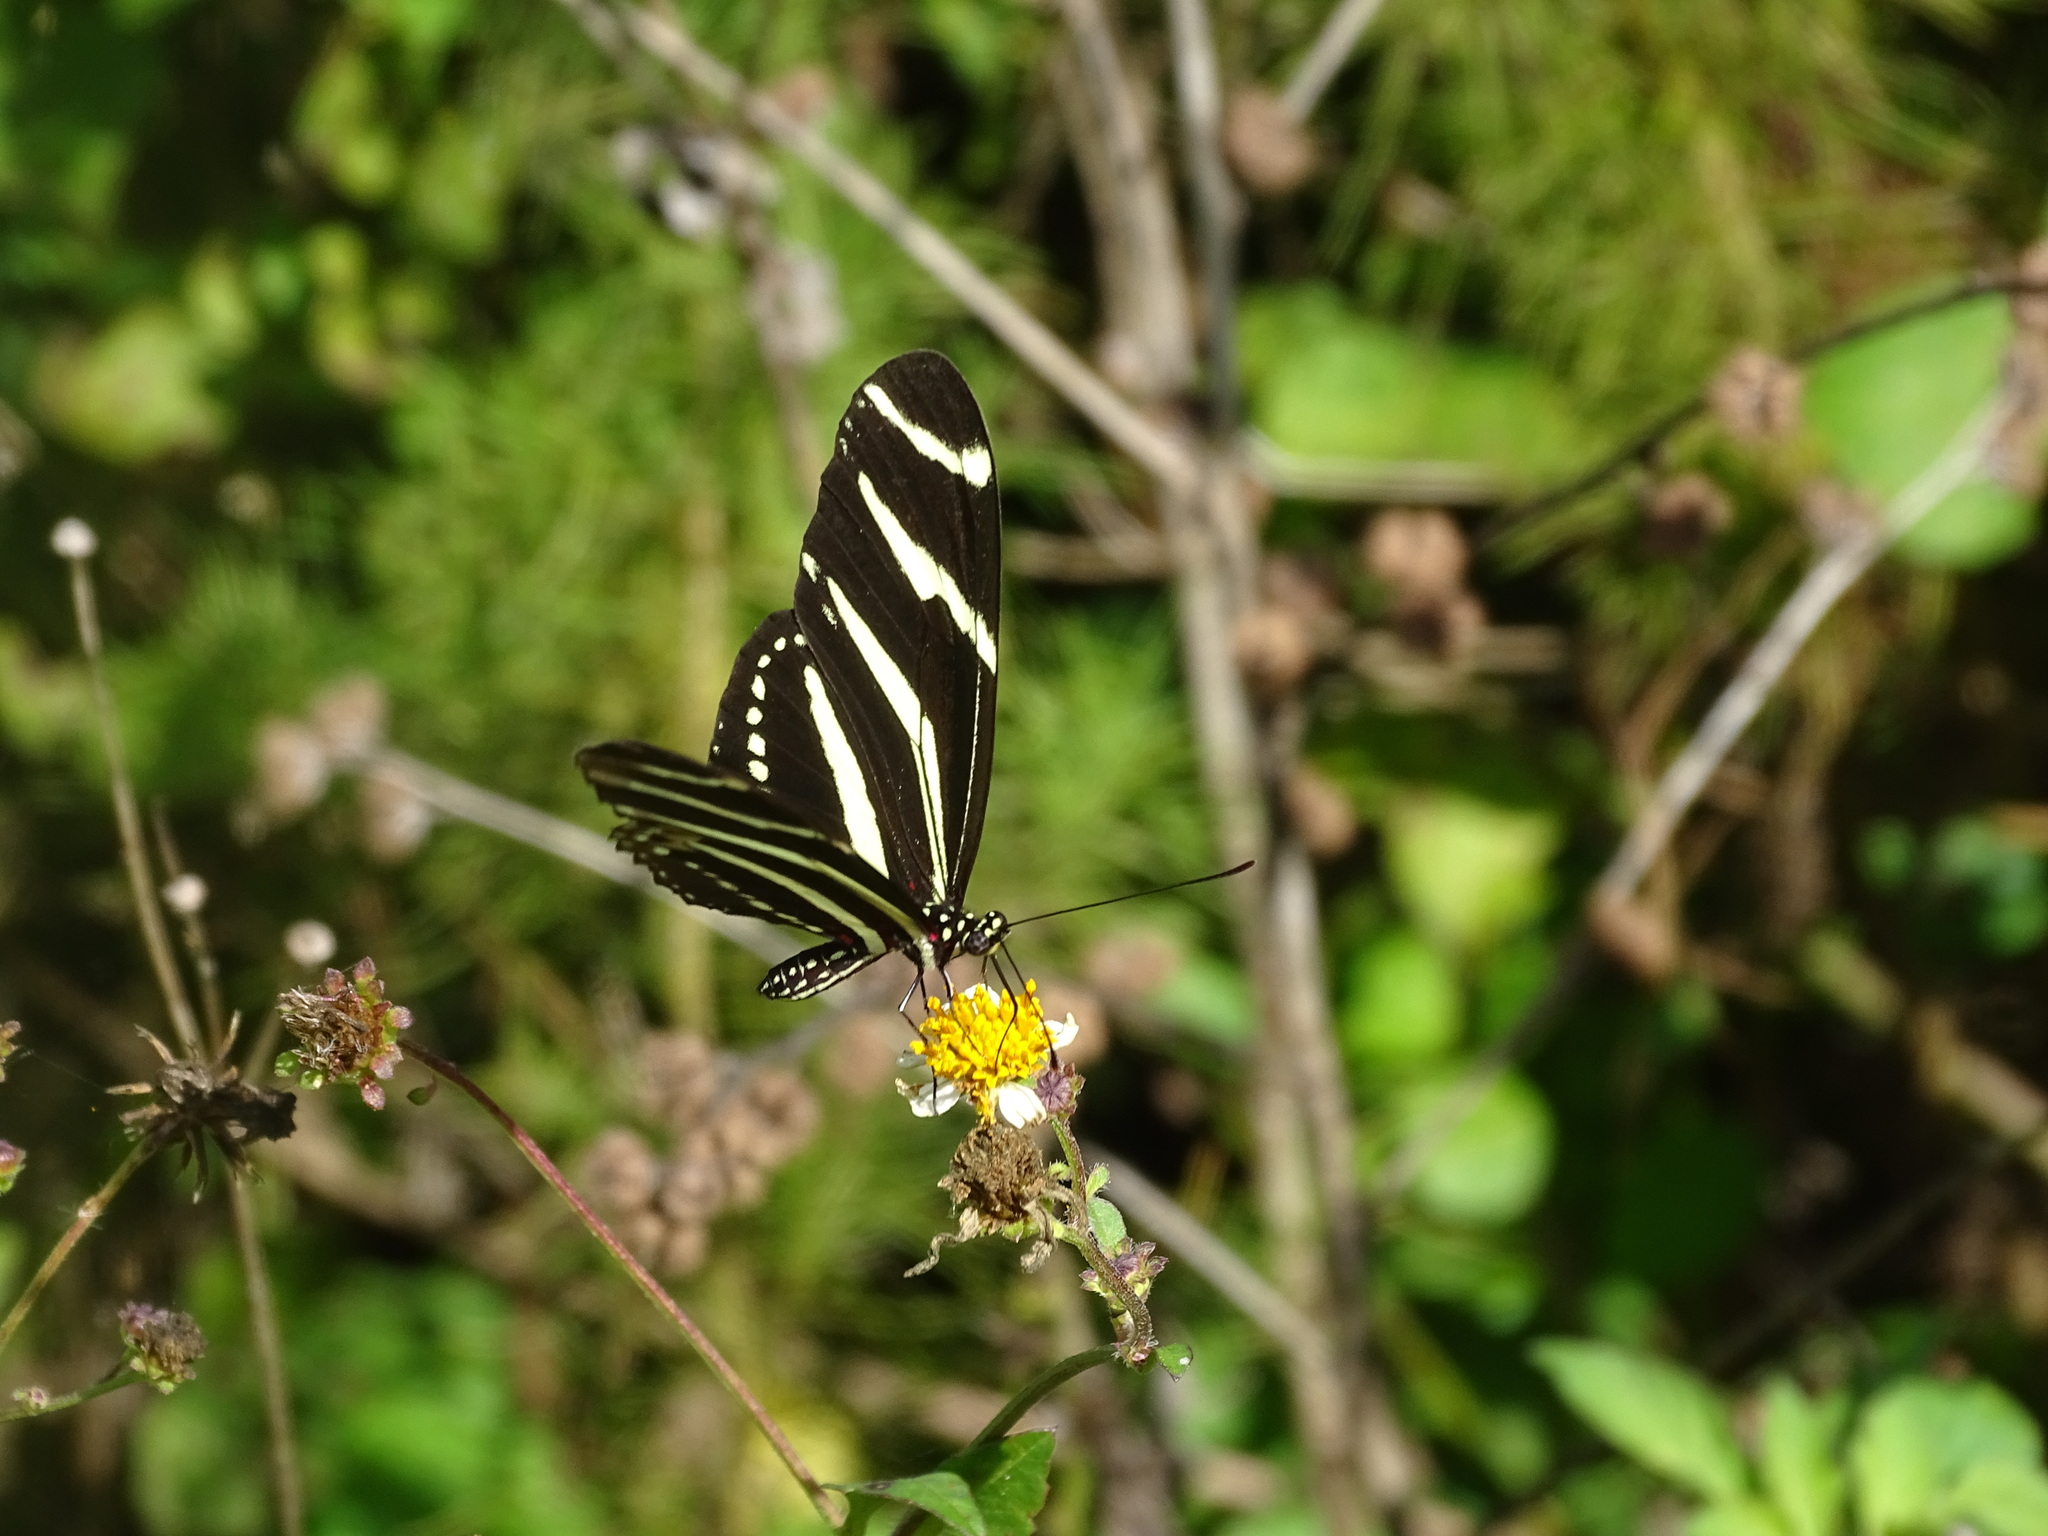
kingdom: Animalia
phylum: Arthropoda
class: Insecta
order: Lepidoptera
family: Nymphalidae
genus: Heliconius
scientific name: Heliconius charithonia
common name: Zebra long wing
